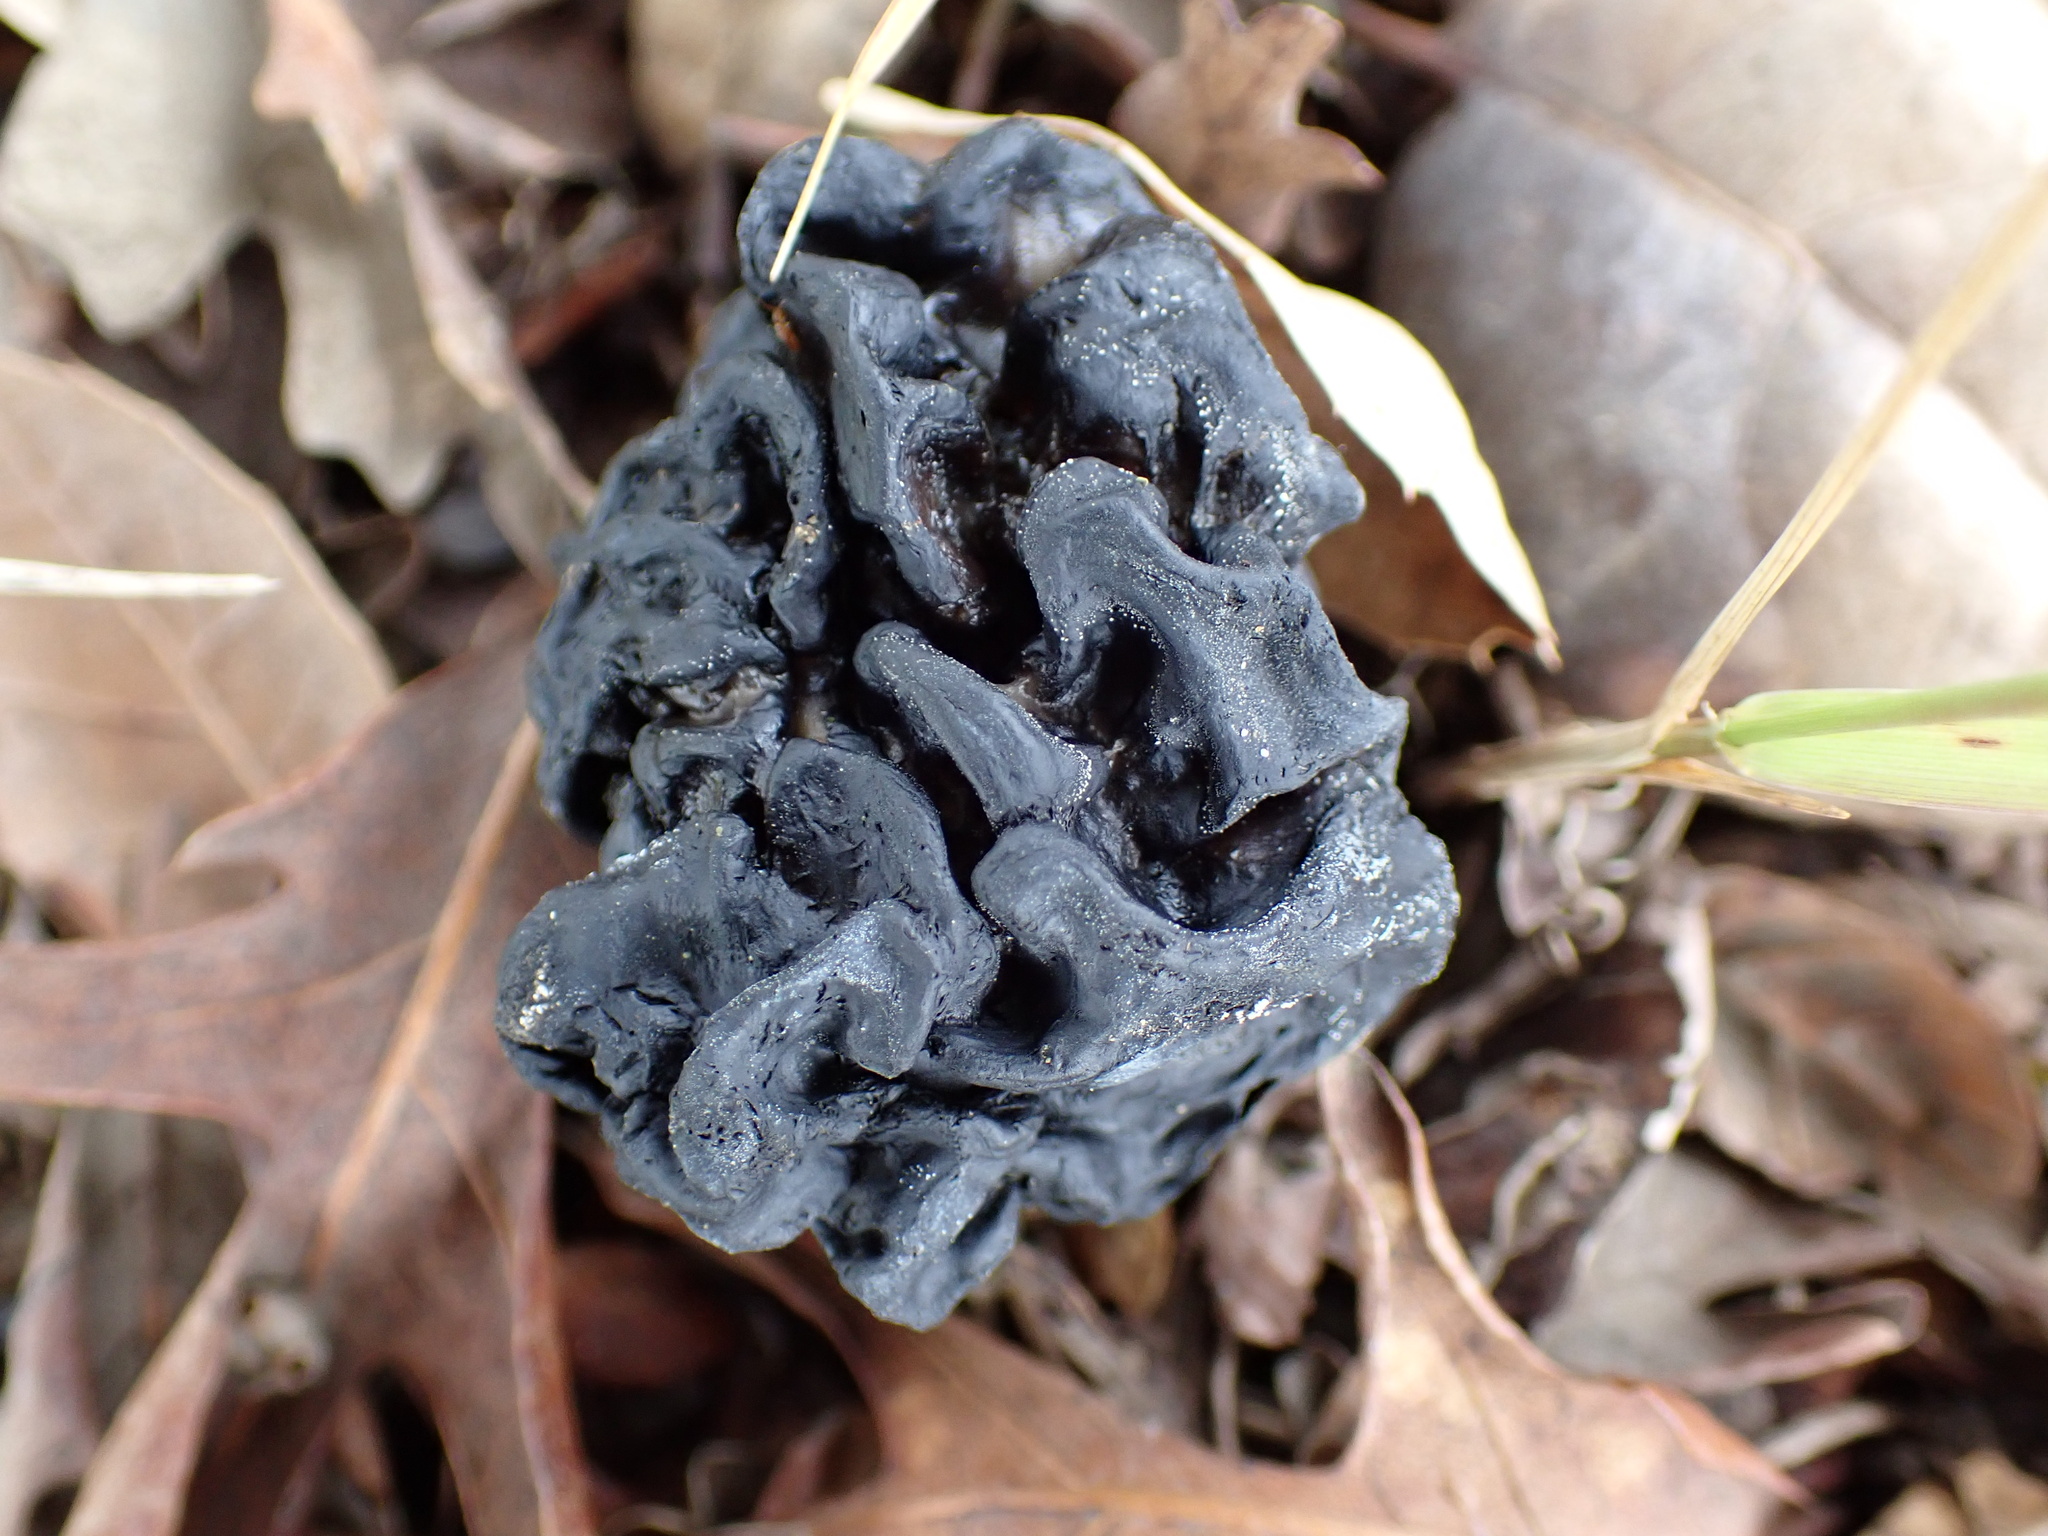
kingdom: Fungi
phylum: Ascomycota
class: Pezizomycetes
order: Pezizales
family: Helvellaceae
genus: Helvella
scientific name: Helvella dryophila
